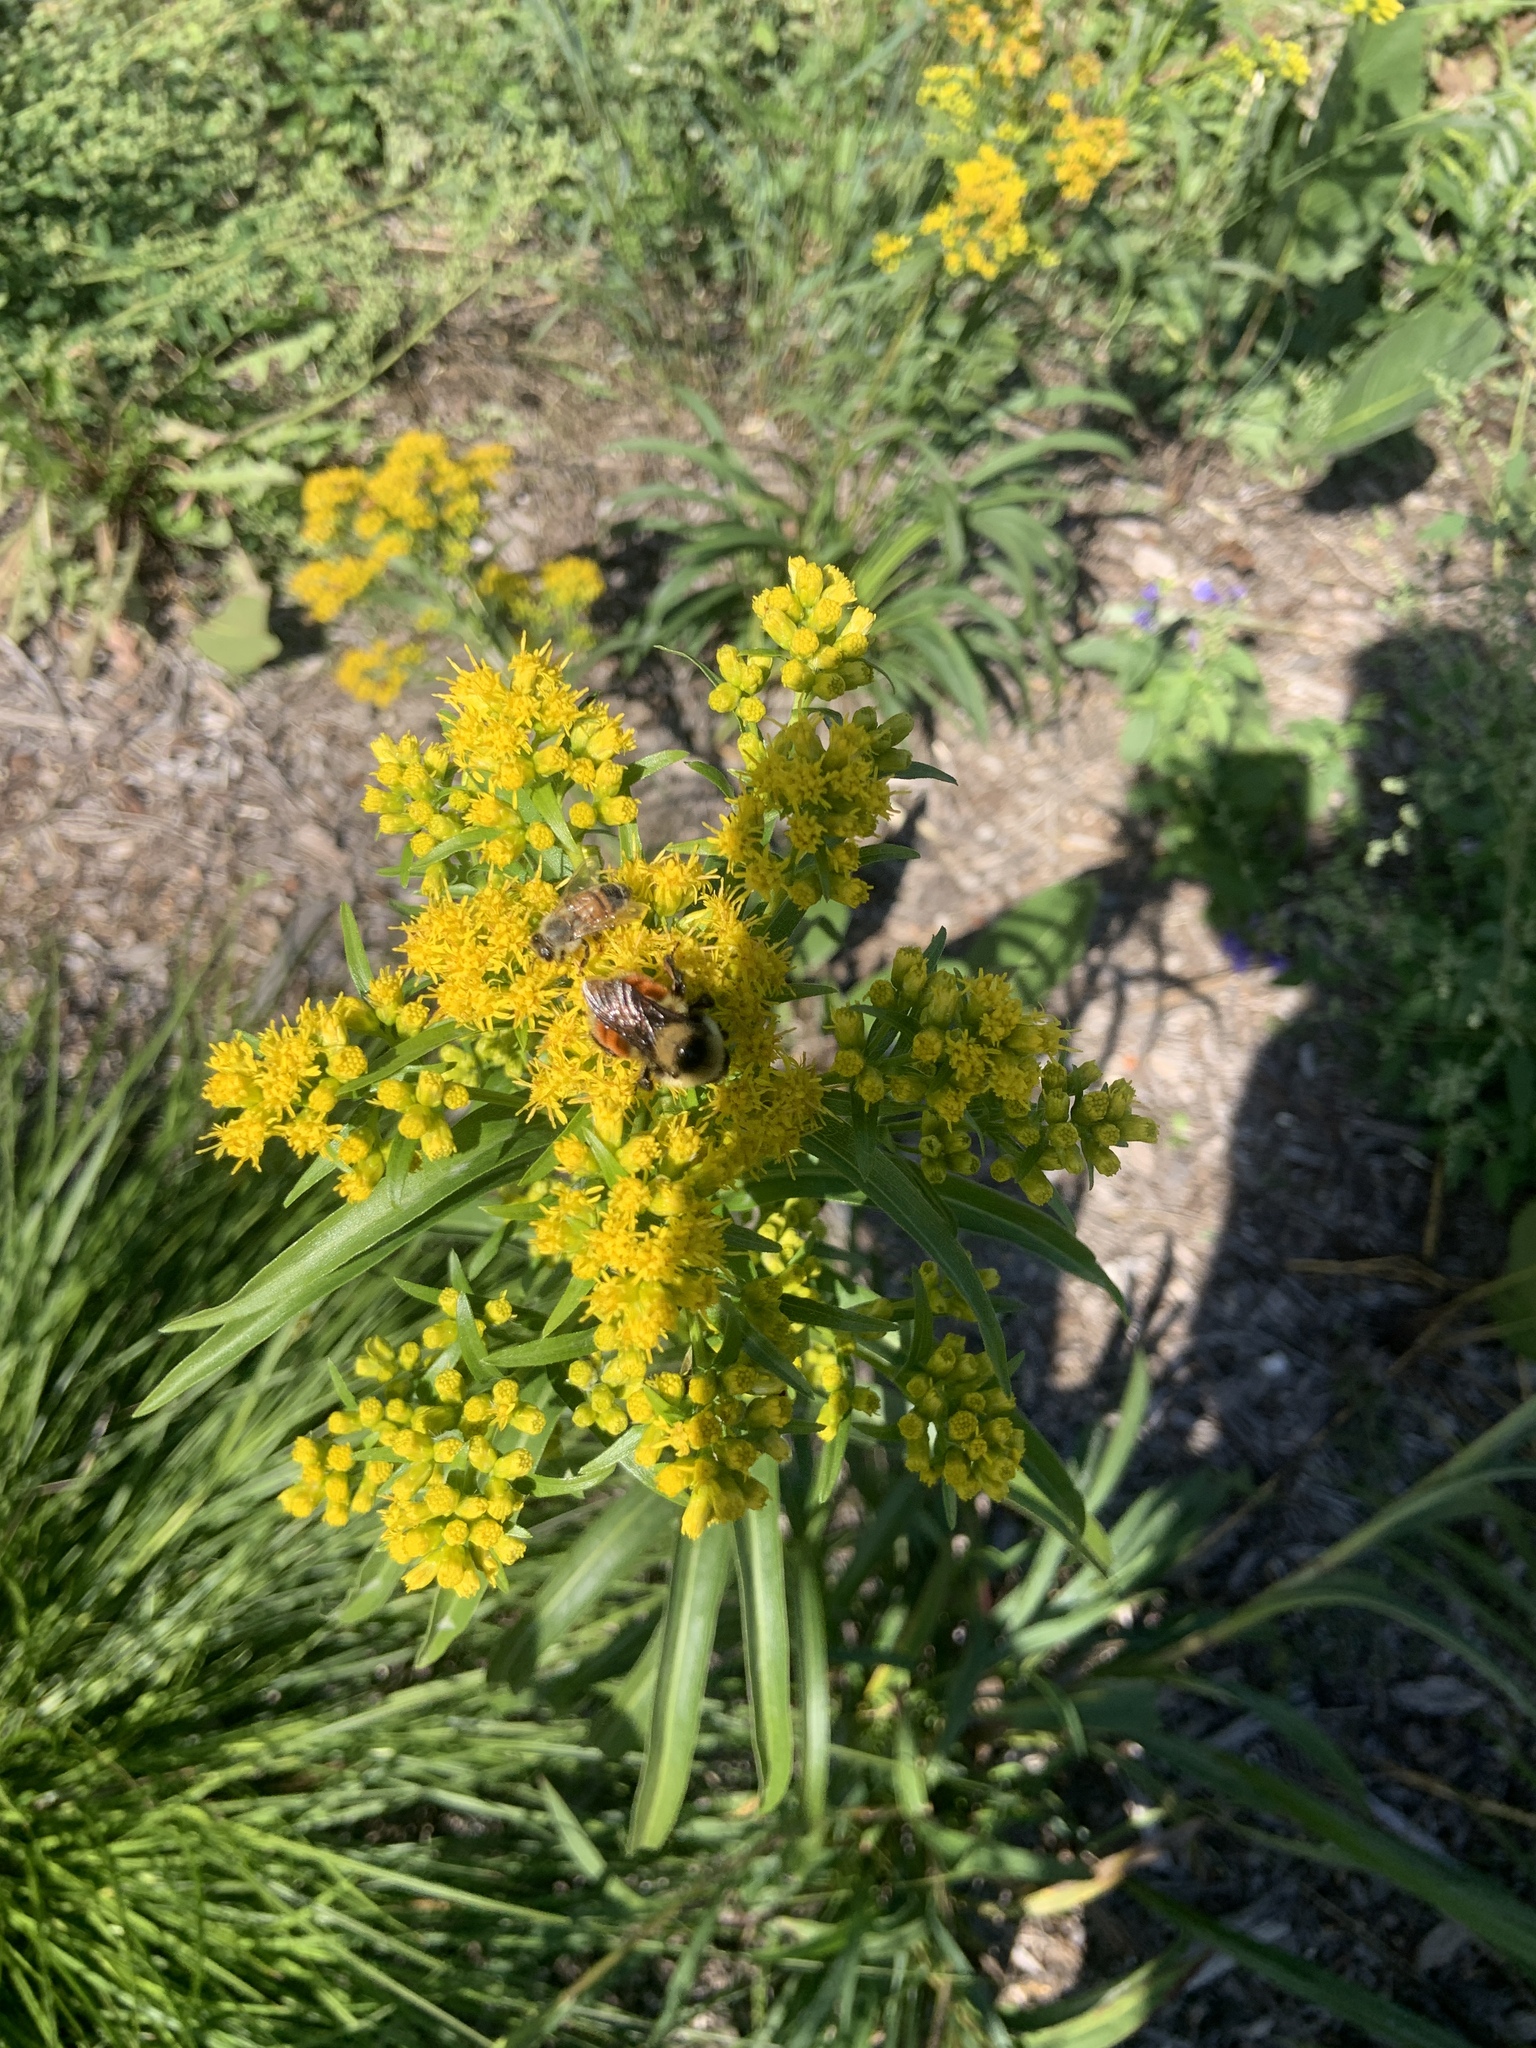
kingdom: Animalia
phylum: Arthropoda
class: Insecta
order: Hymenoptera
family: Apidae
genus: Bombus
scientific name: Bombus rufocinctus
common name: Red-belted bumble bee
